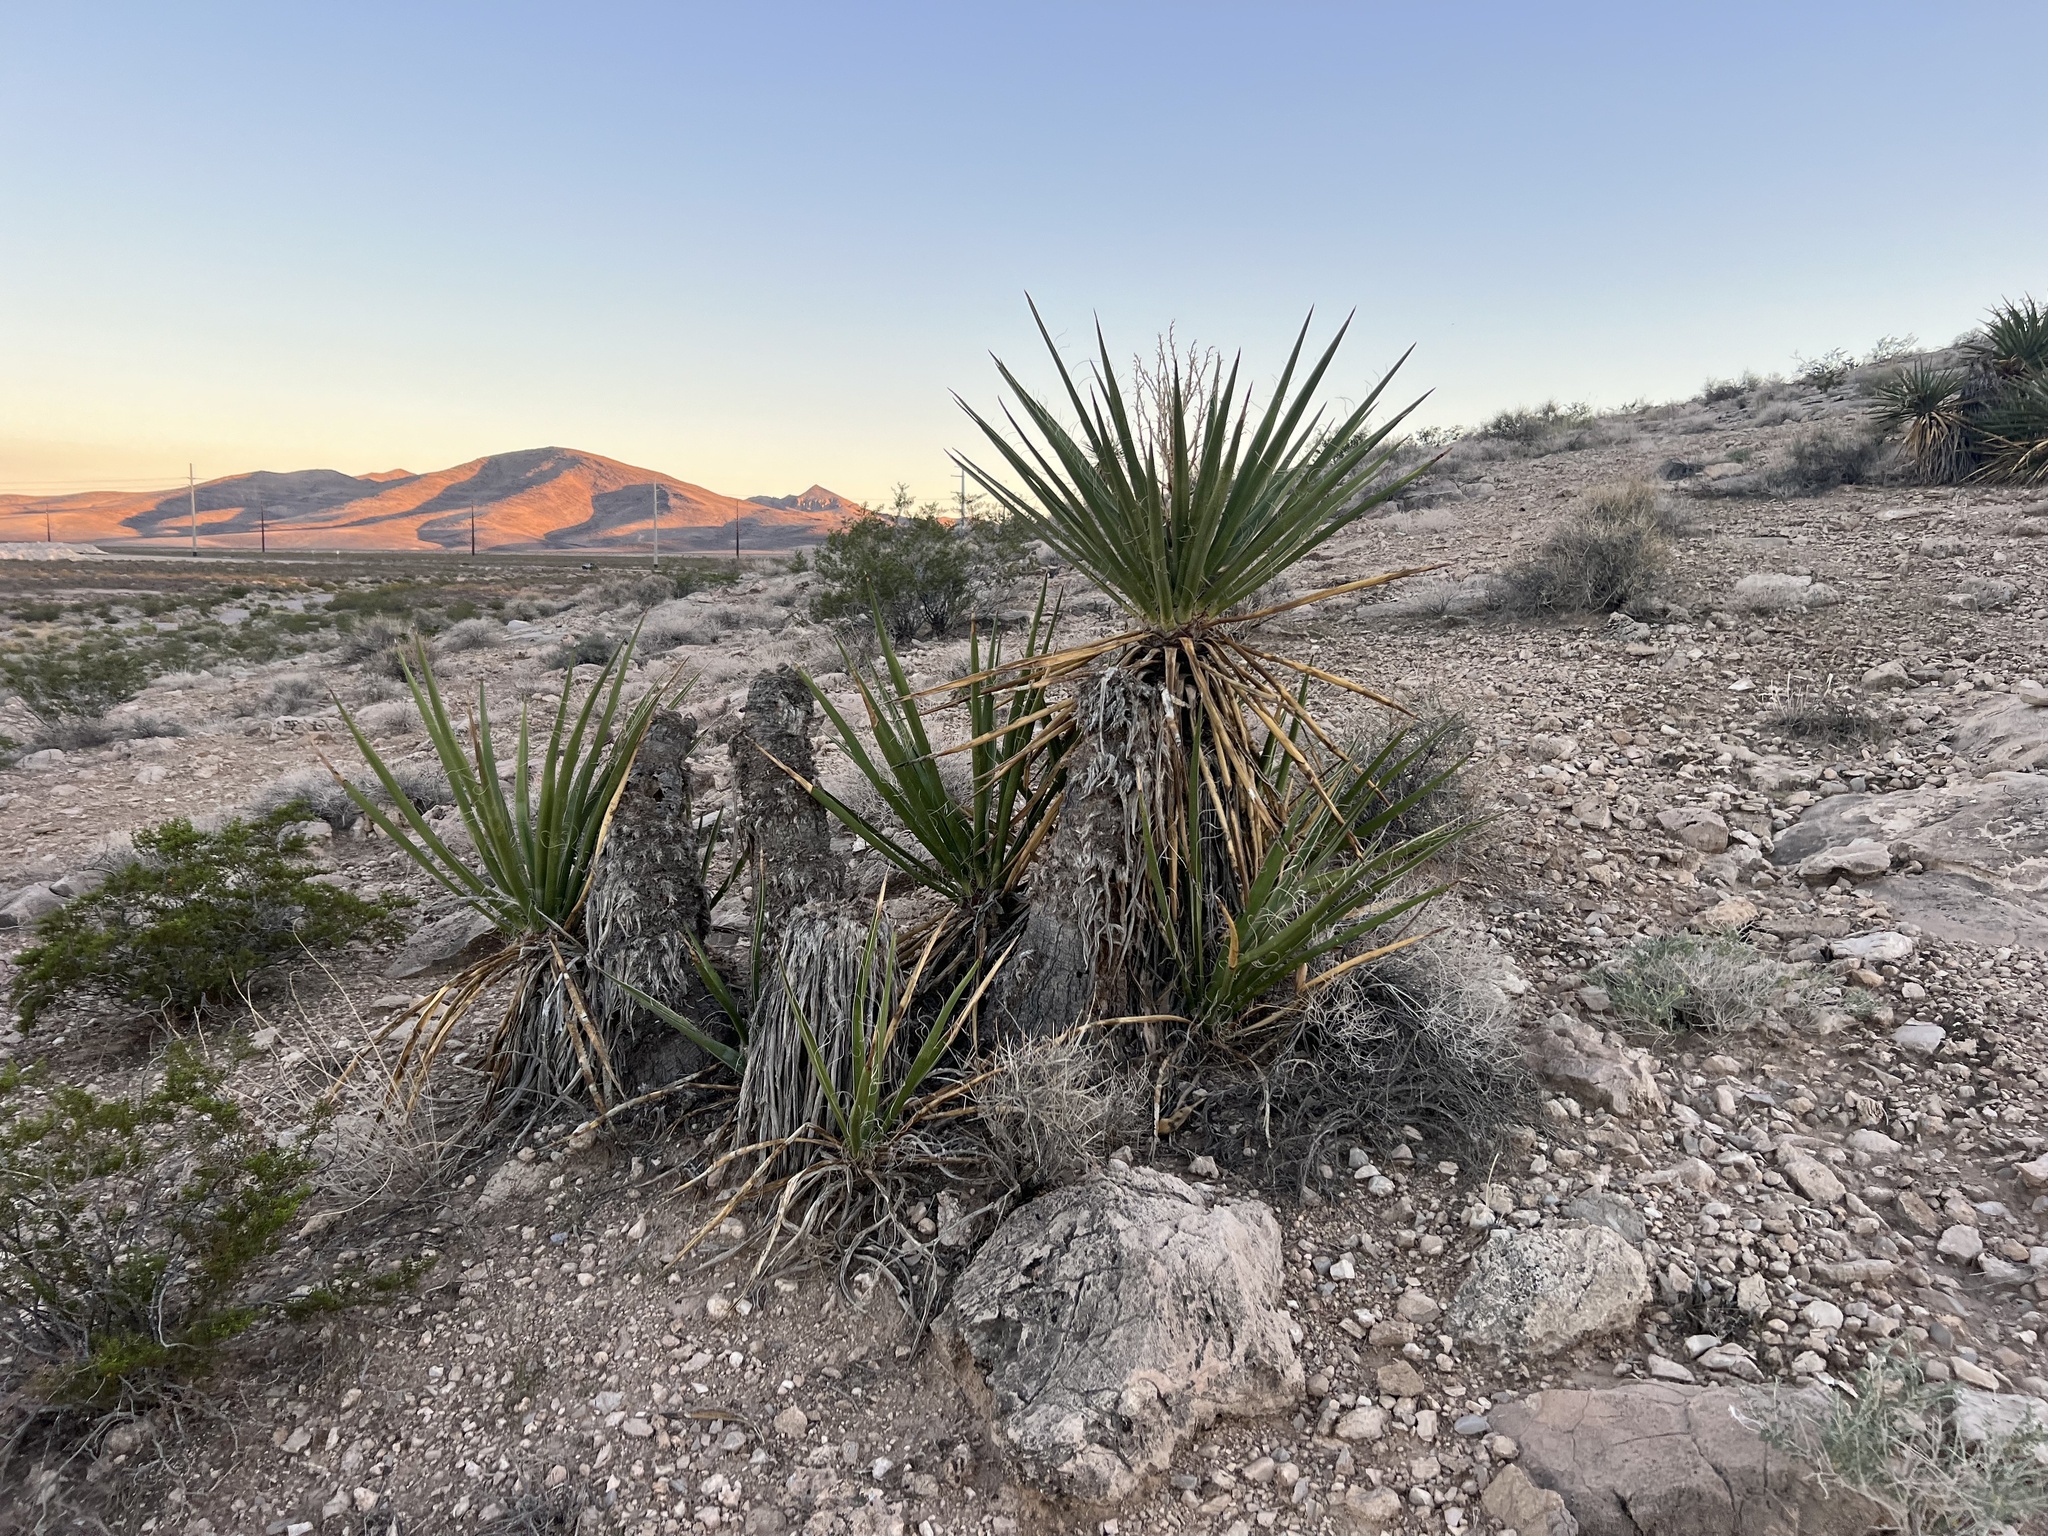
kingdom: Plantae
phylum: Tracheophyta
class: Liliopsida
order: Asparagales
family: Asparagaceae
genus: Yucca
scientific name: Yucca schidigera
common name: Mojave yucca
